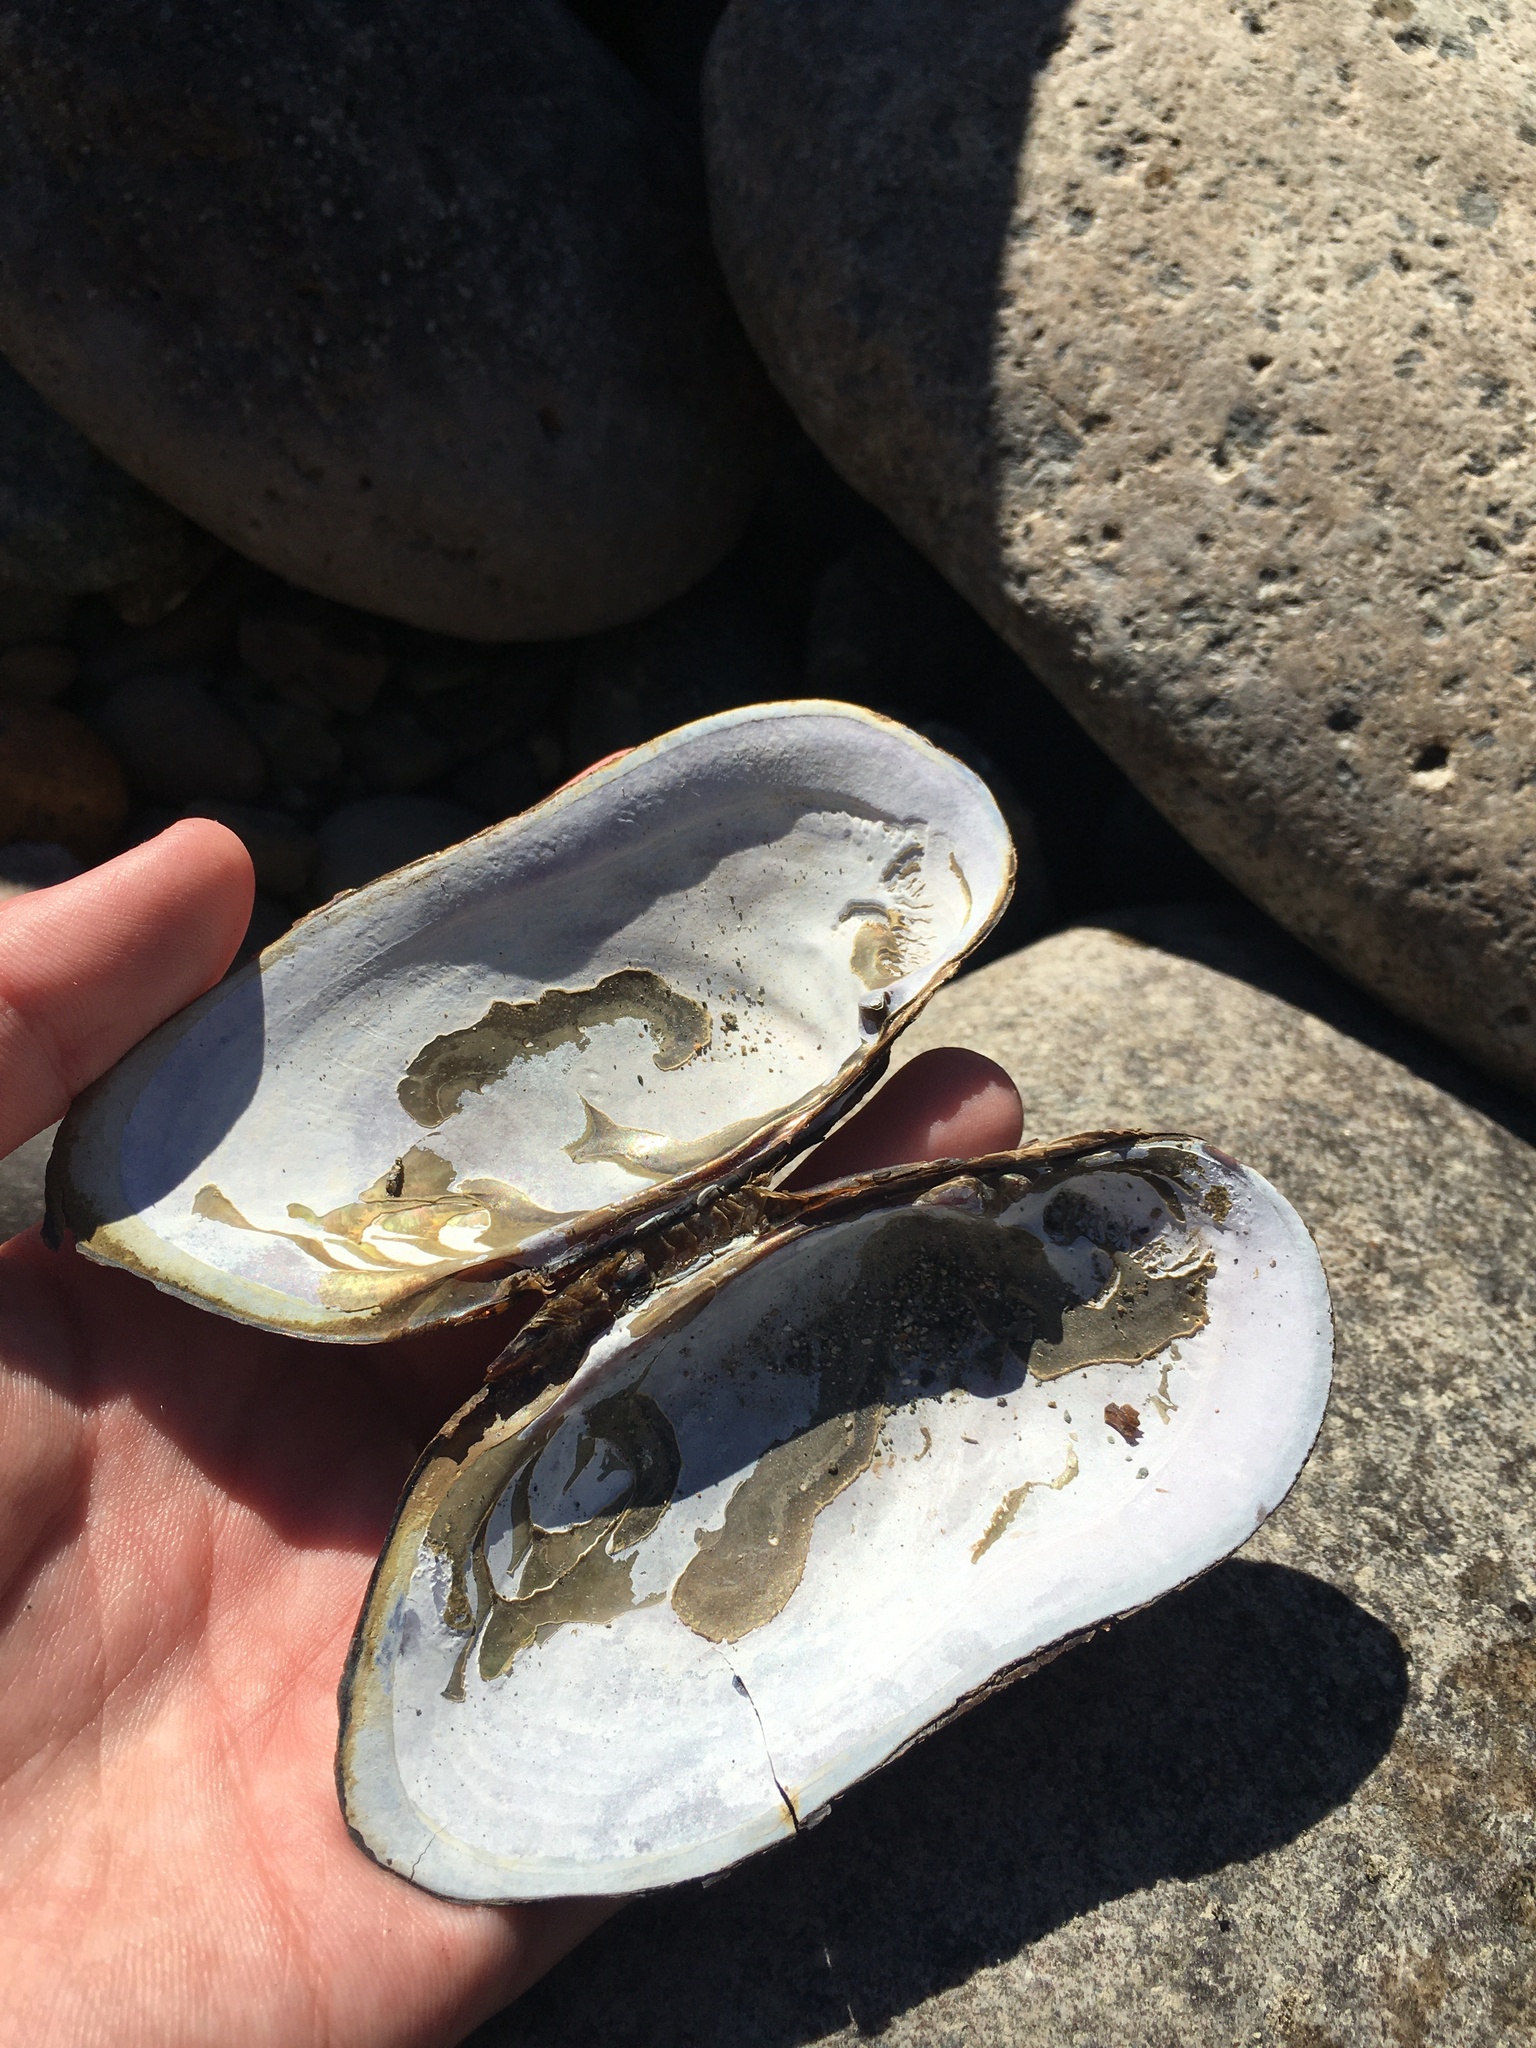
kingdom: Animalia
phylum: Mollusca
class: Bivalvia
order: Unionida
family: Margaritiferidae
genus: Margaritifera
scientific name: Margaritifera falcata
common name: Western pearlshell
